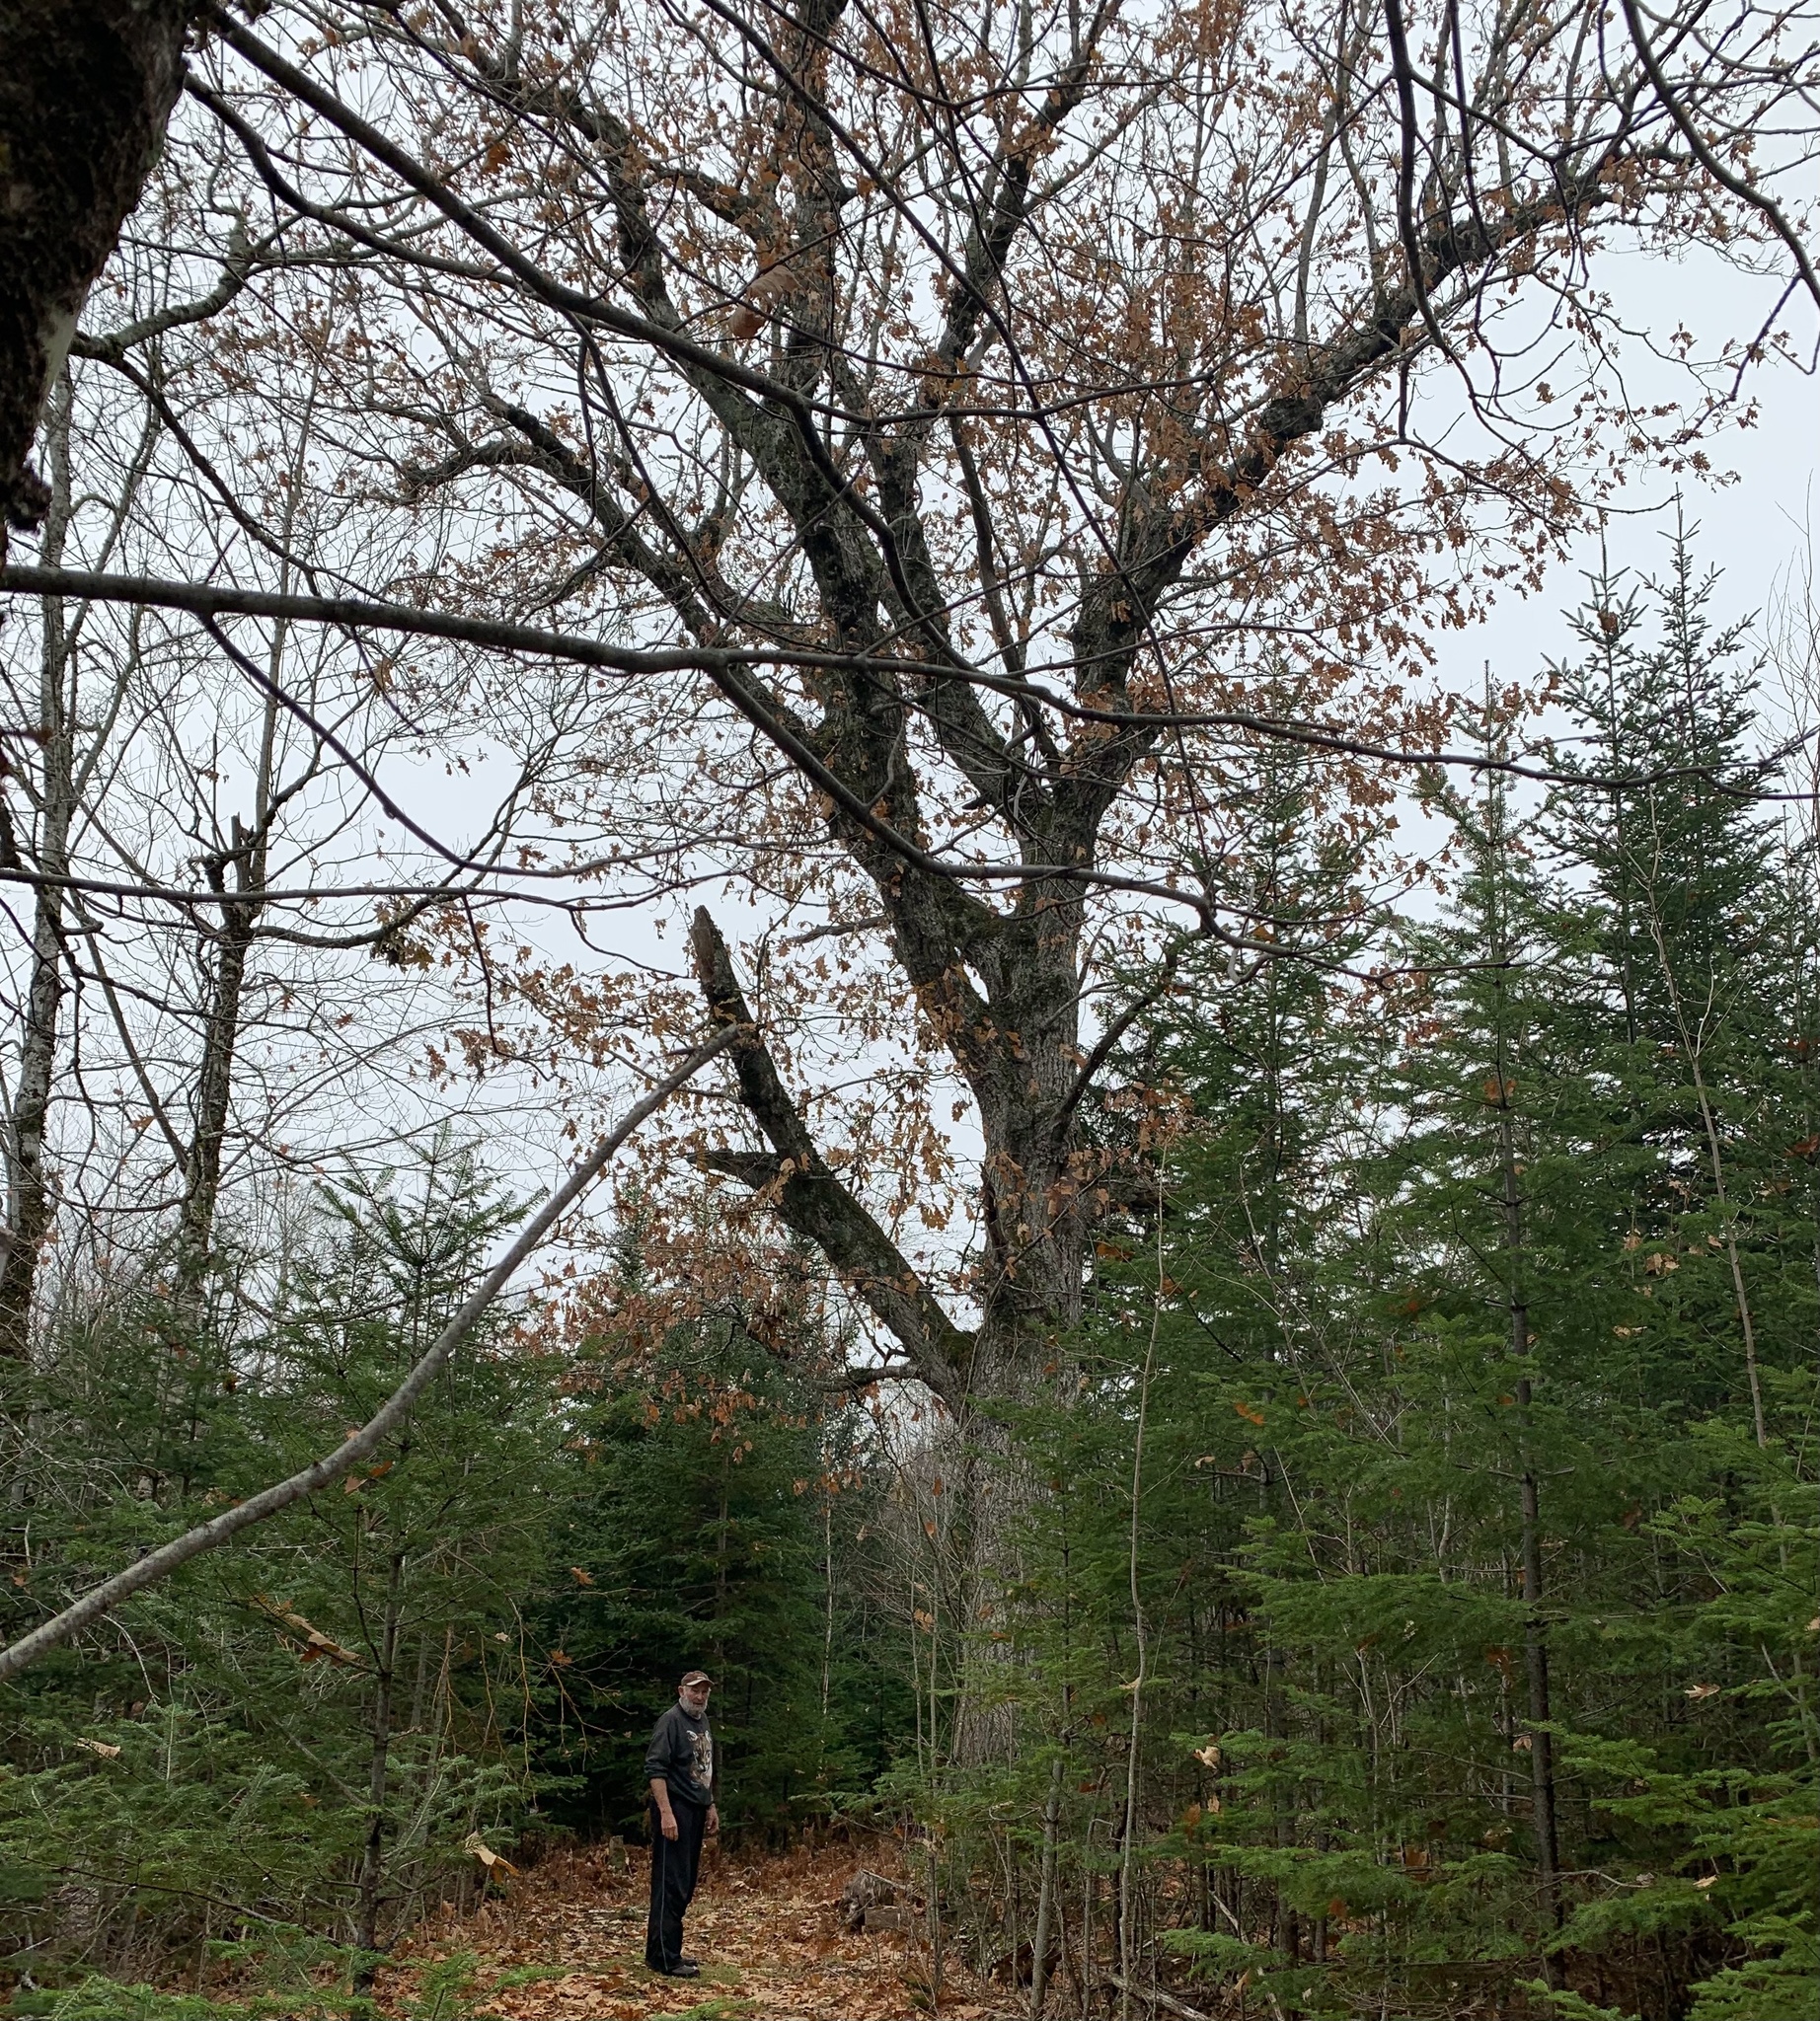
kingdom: Plantae
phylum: Tracheophyta
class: Magnoliopsida
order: Fagales
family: Fagaceae
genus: Quercus
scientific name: Quercus rubra
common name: Red oak
